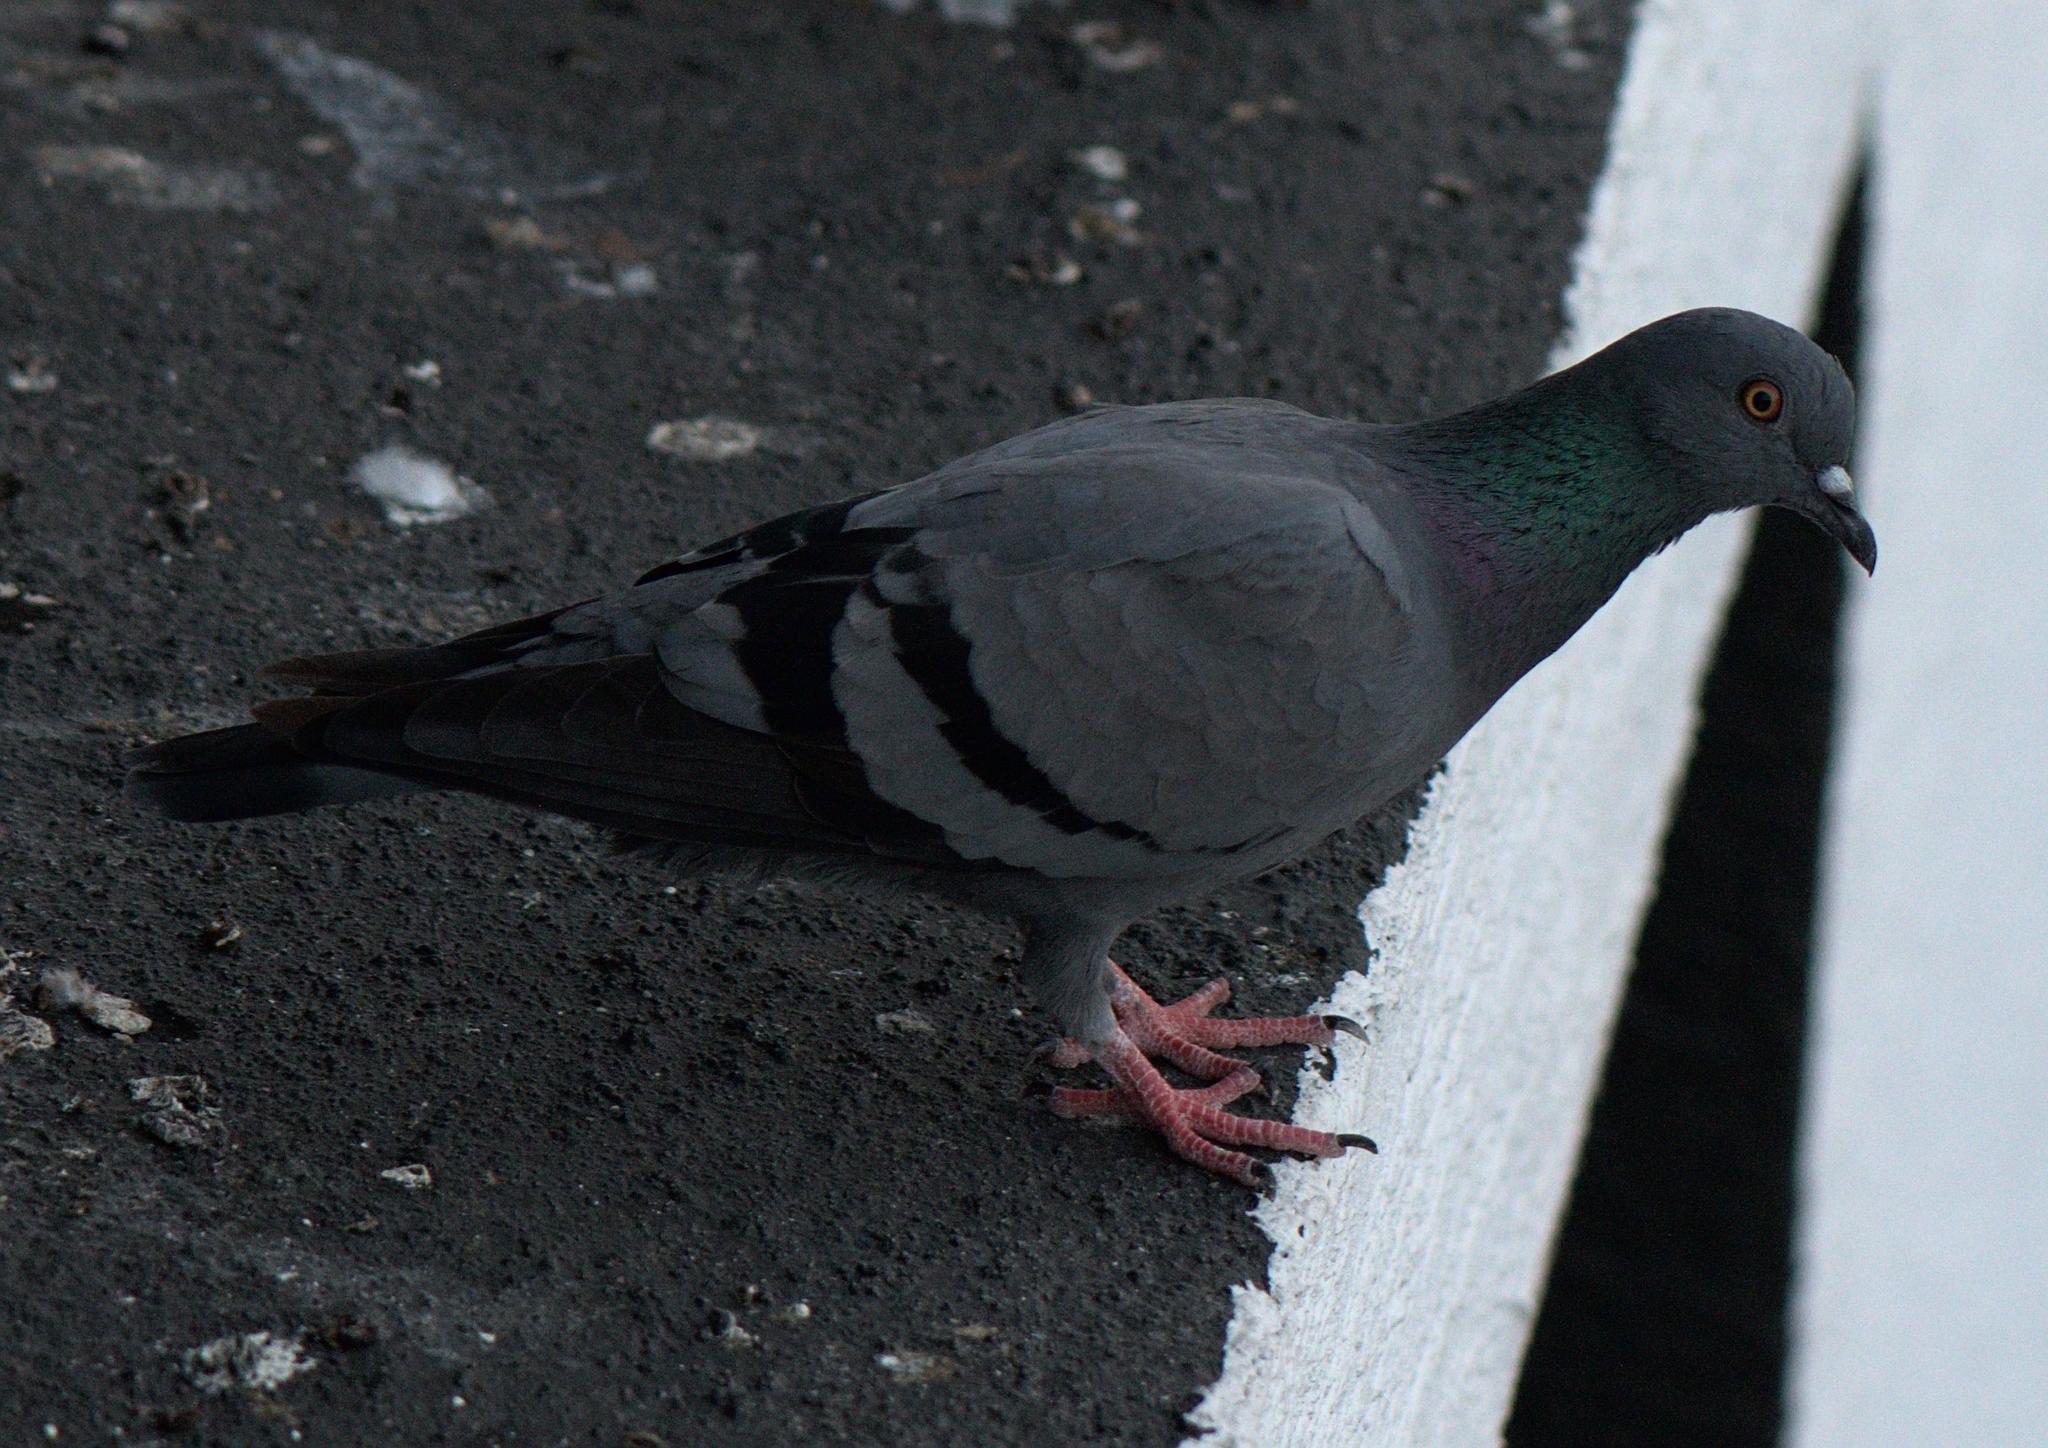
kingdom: Animalia
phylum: Chordata
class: Aves
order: Columbiformes
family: Columbidae
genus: Columba
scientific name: Columba livia
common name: Rock pigeon
